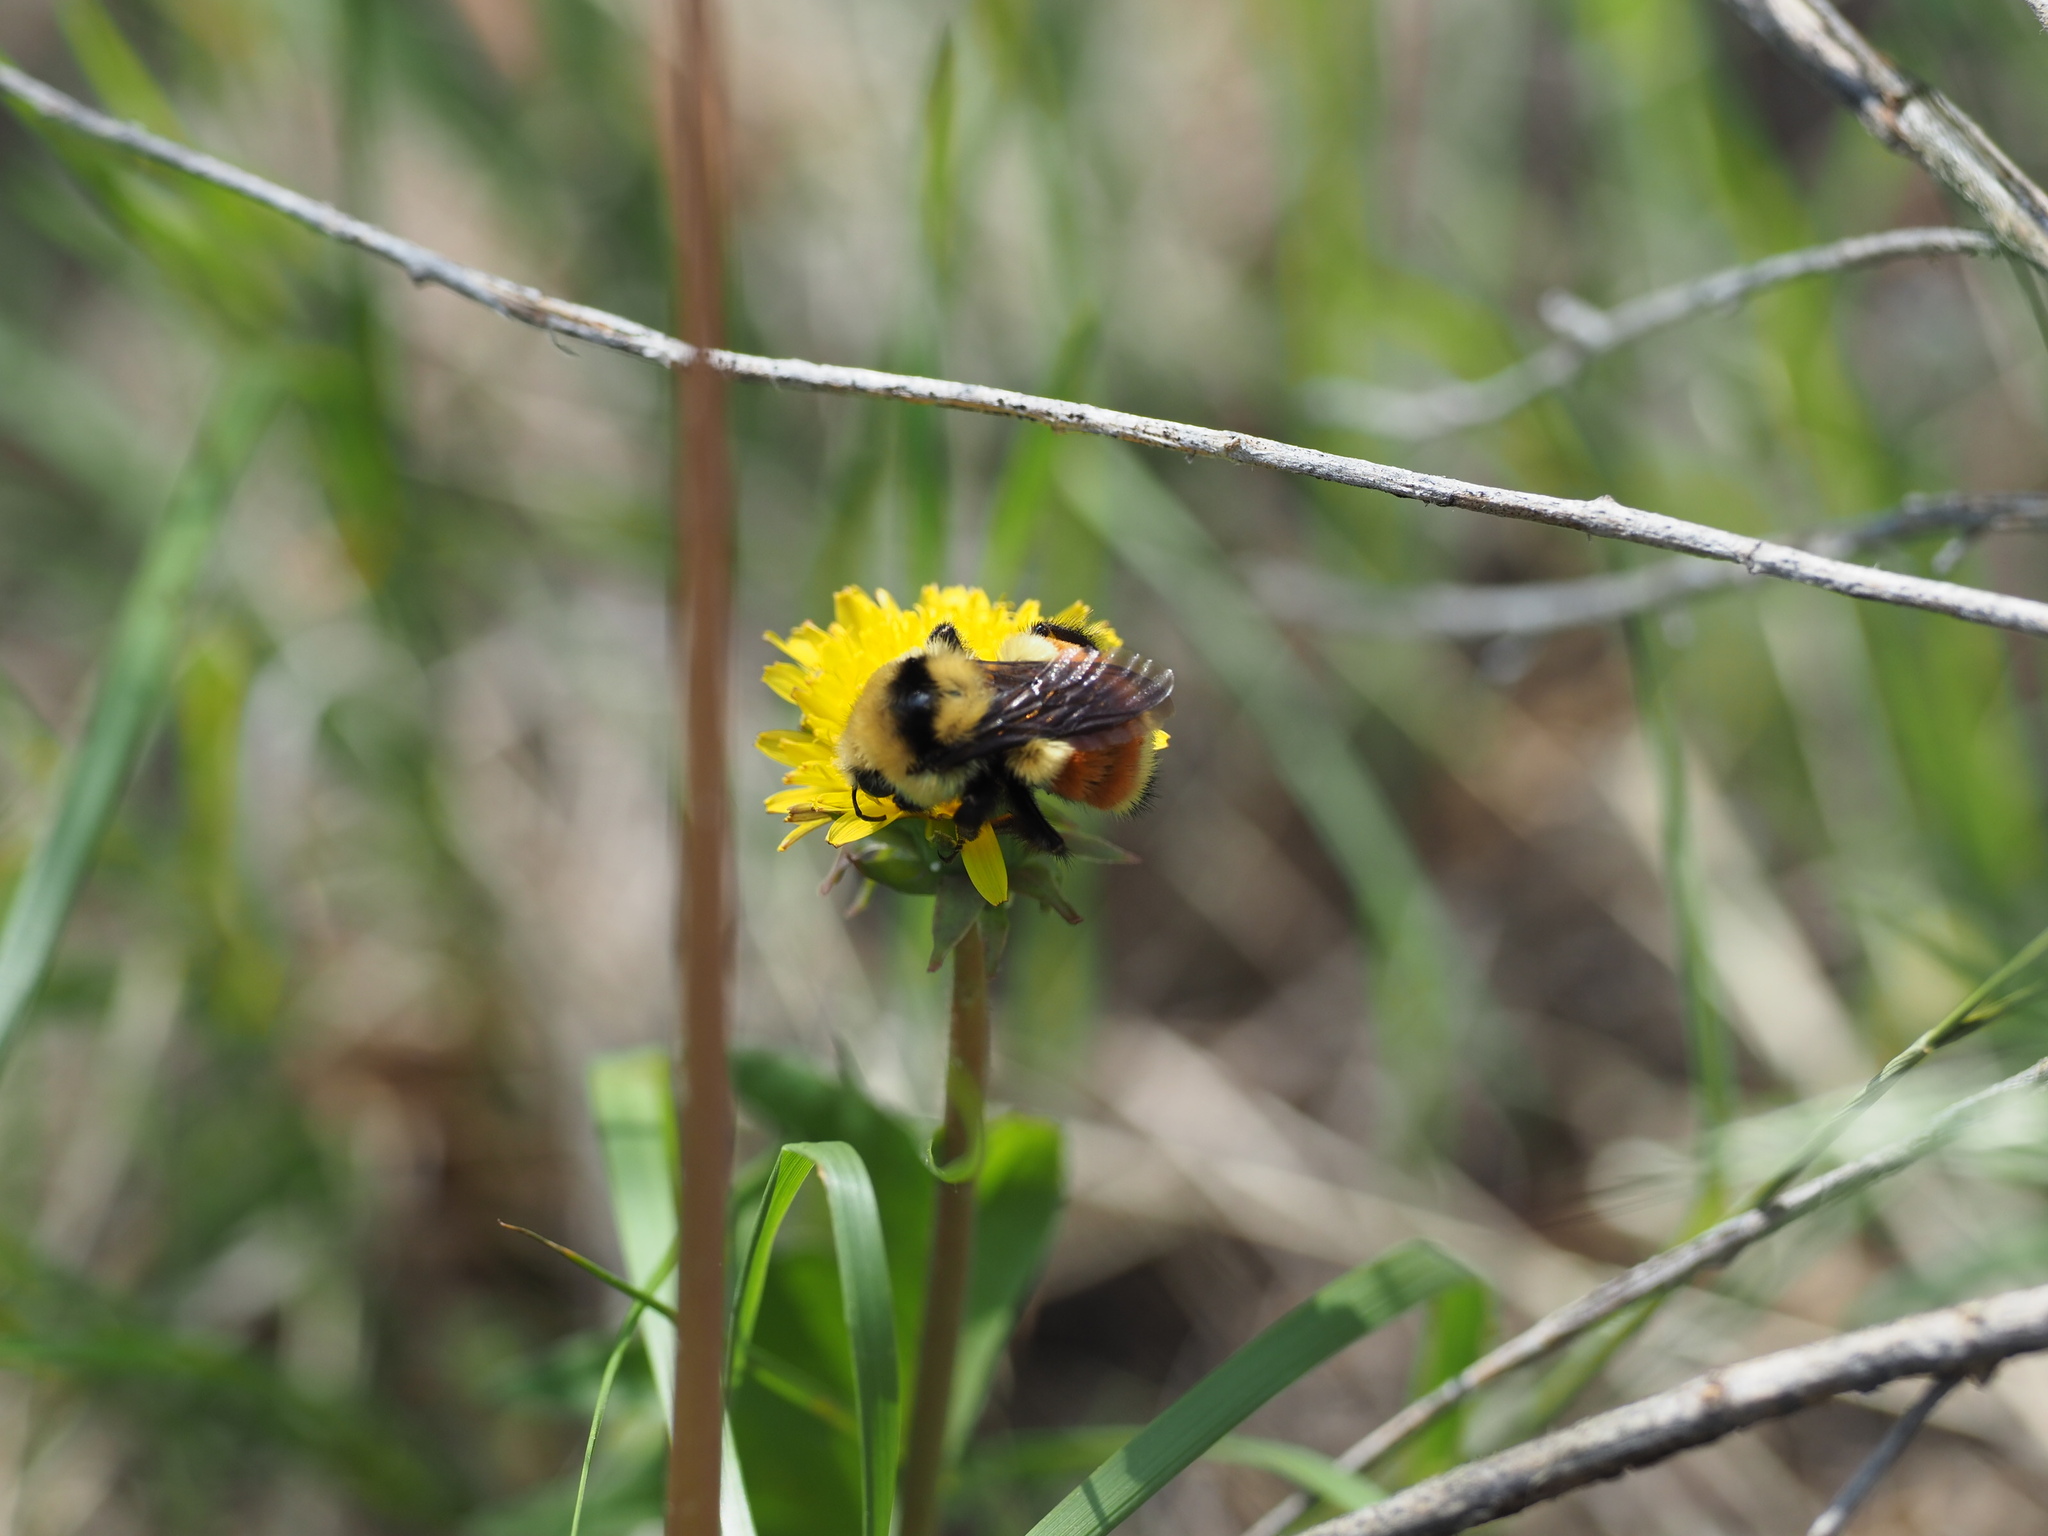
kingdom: Animalia
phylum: Arthropoda
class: Insecta
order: Hymenoptera
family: Apidae
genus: Bombus
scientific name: Bombus huntii
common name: Hunt bumble bee
